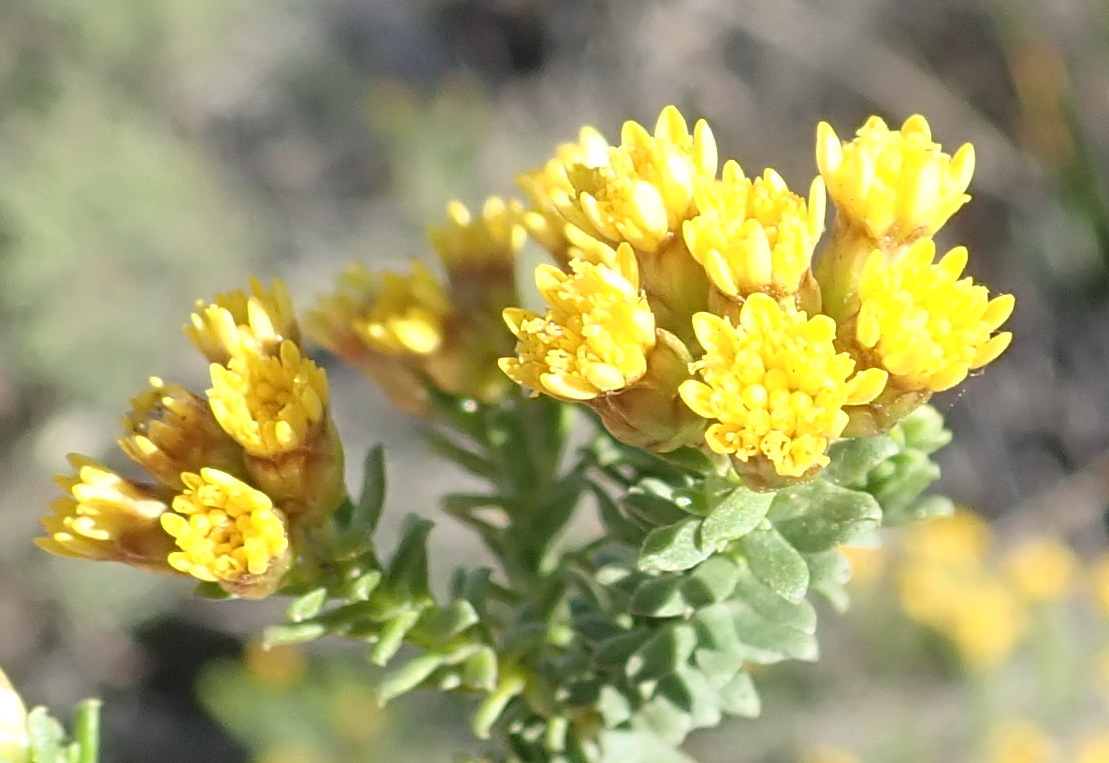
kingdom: Plantae
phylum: Tracheophyta
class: Magnoliopsida
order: Asterales
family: Asteraceae
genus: Oedera
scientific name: Oedera genistifolia
